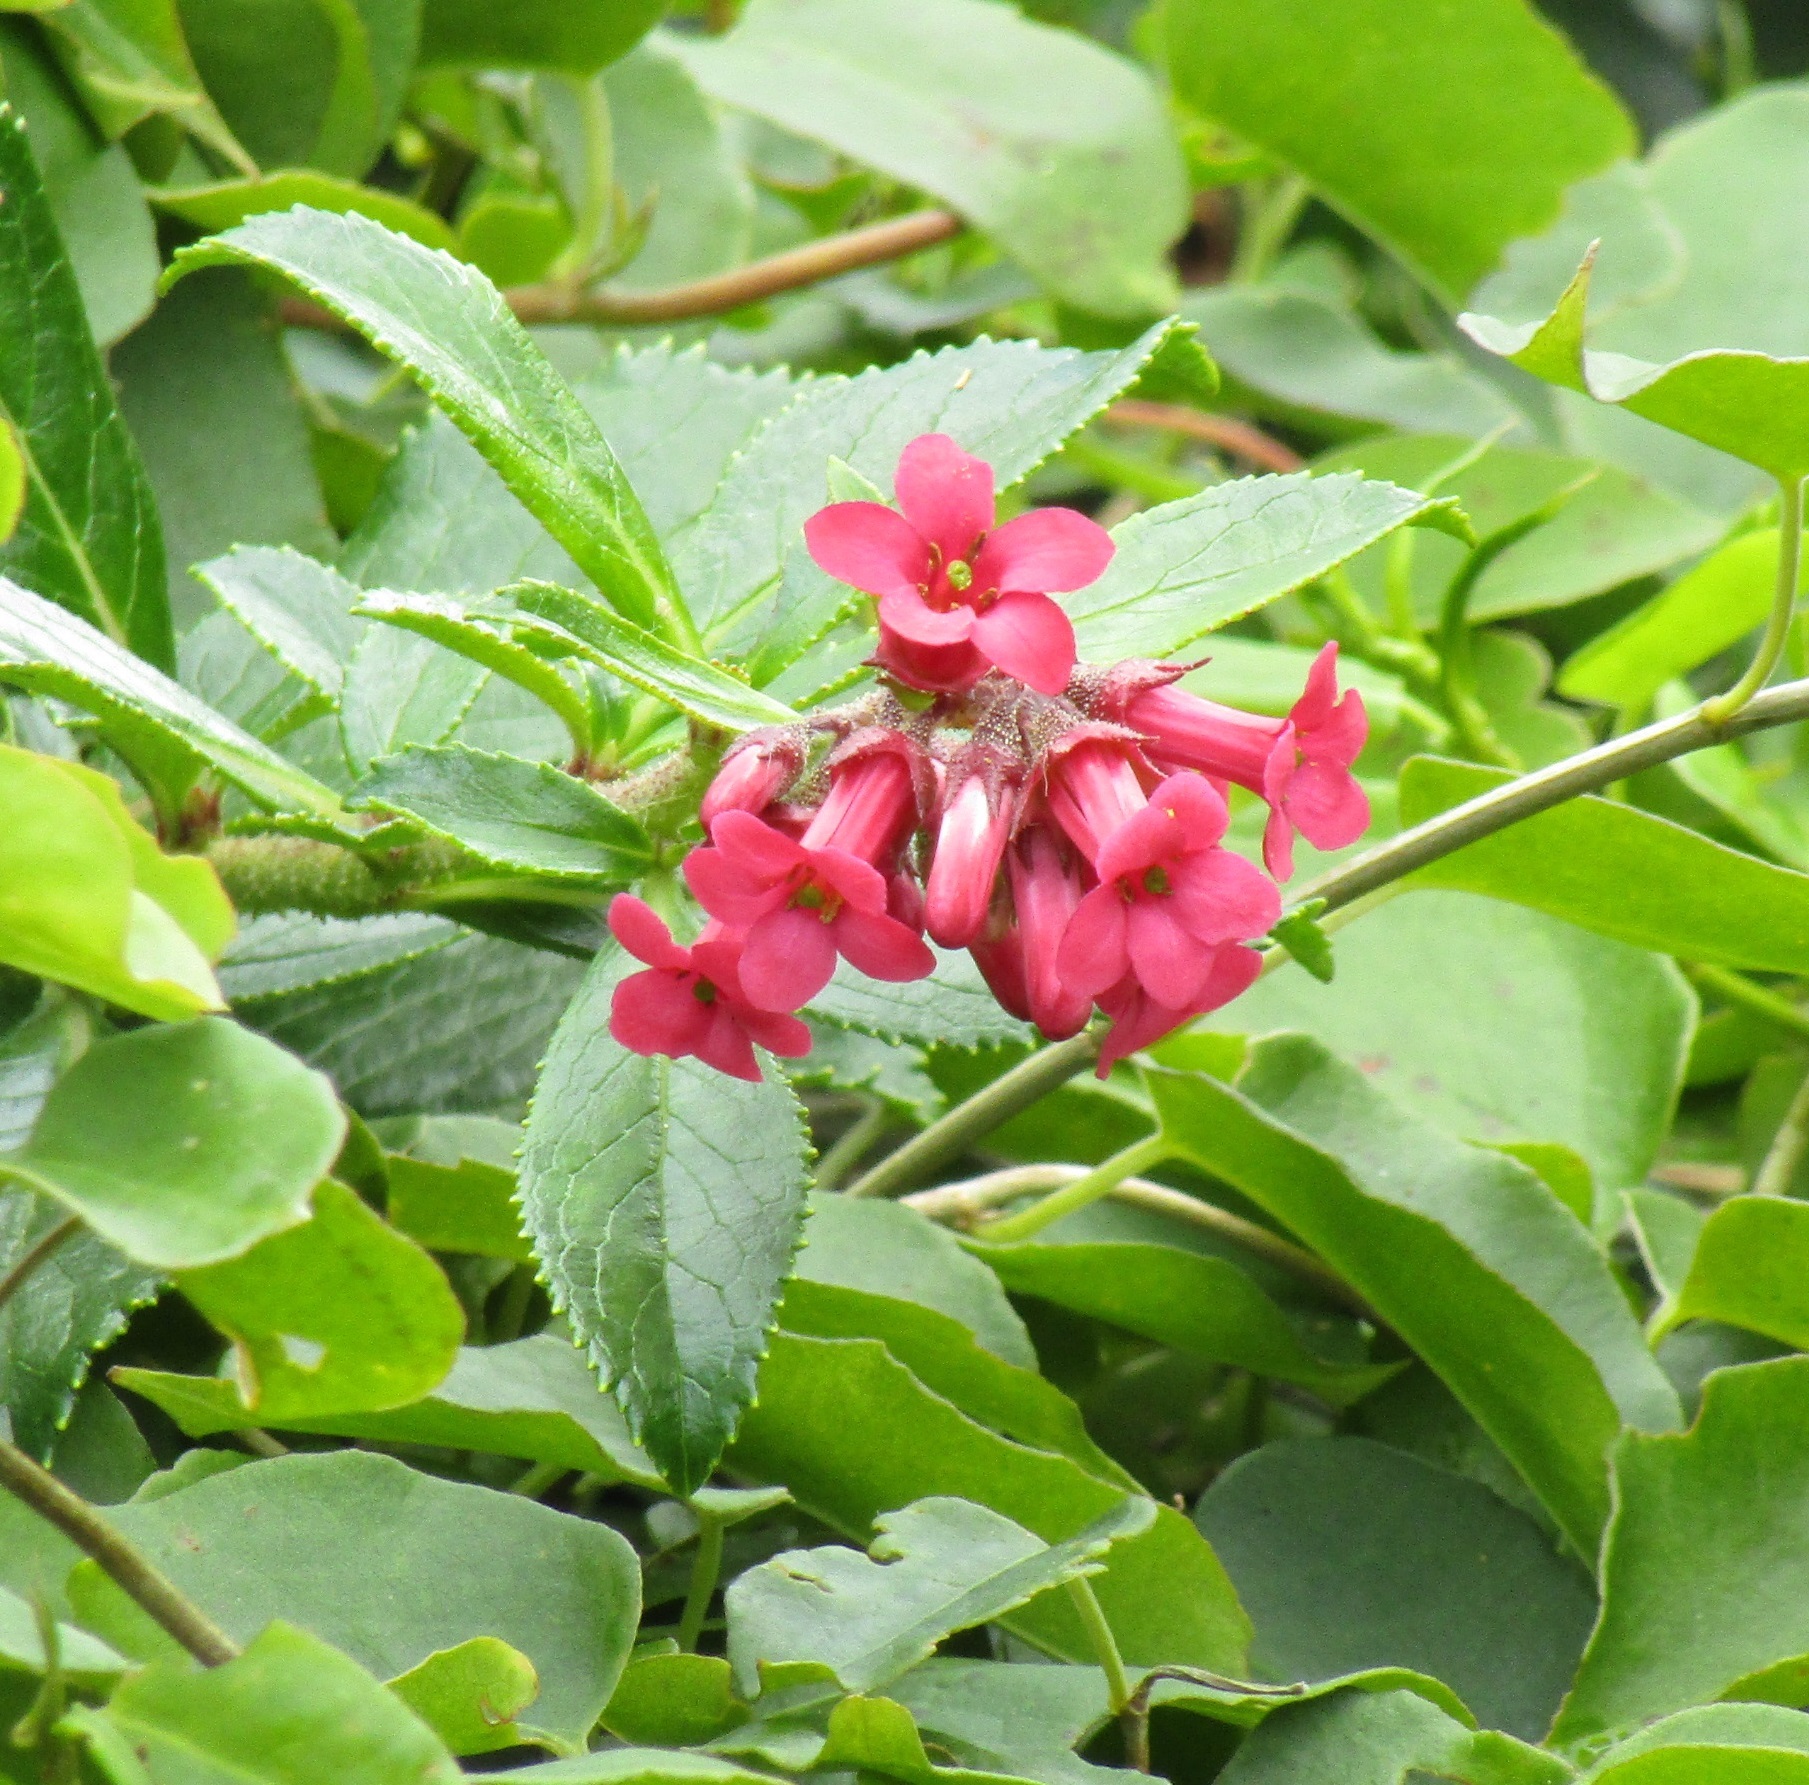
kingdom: Plantae
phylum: Tracheophyta
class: Magnoliopsida
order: Escalloniales
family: Escalloniaceae
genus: Escallonia
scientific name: Escallonia rubra
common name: Redclaws
